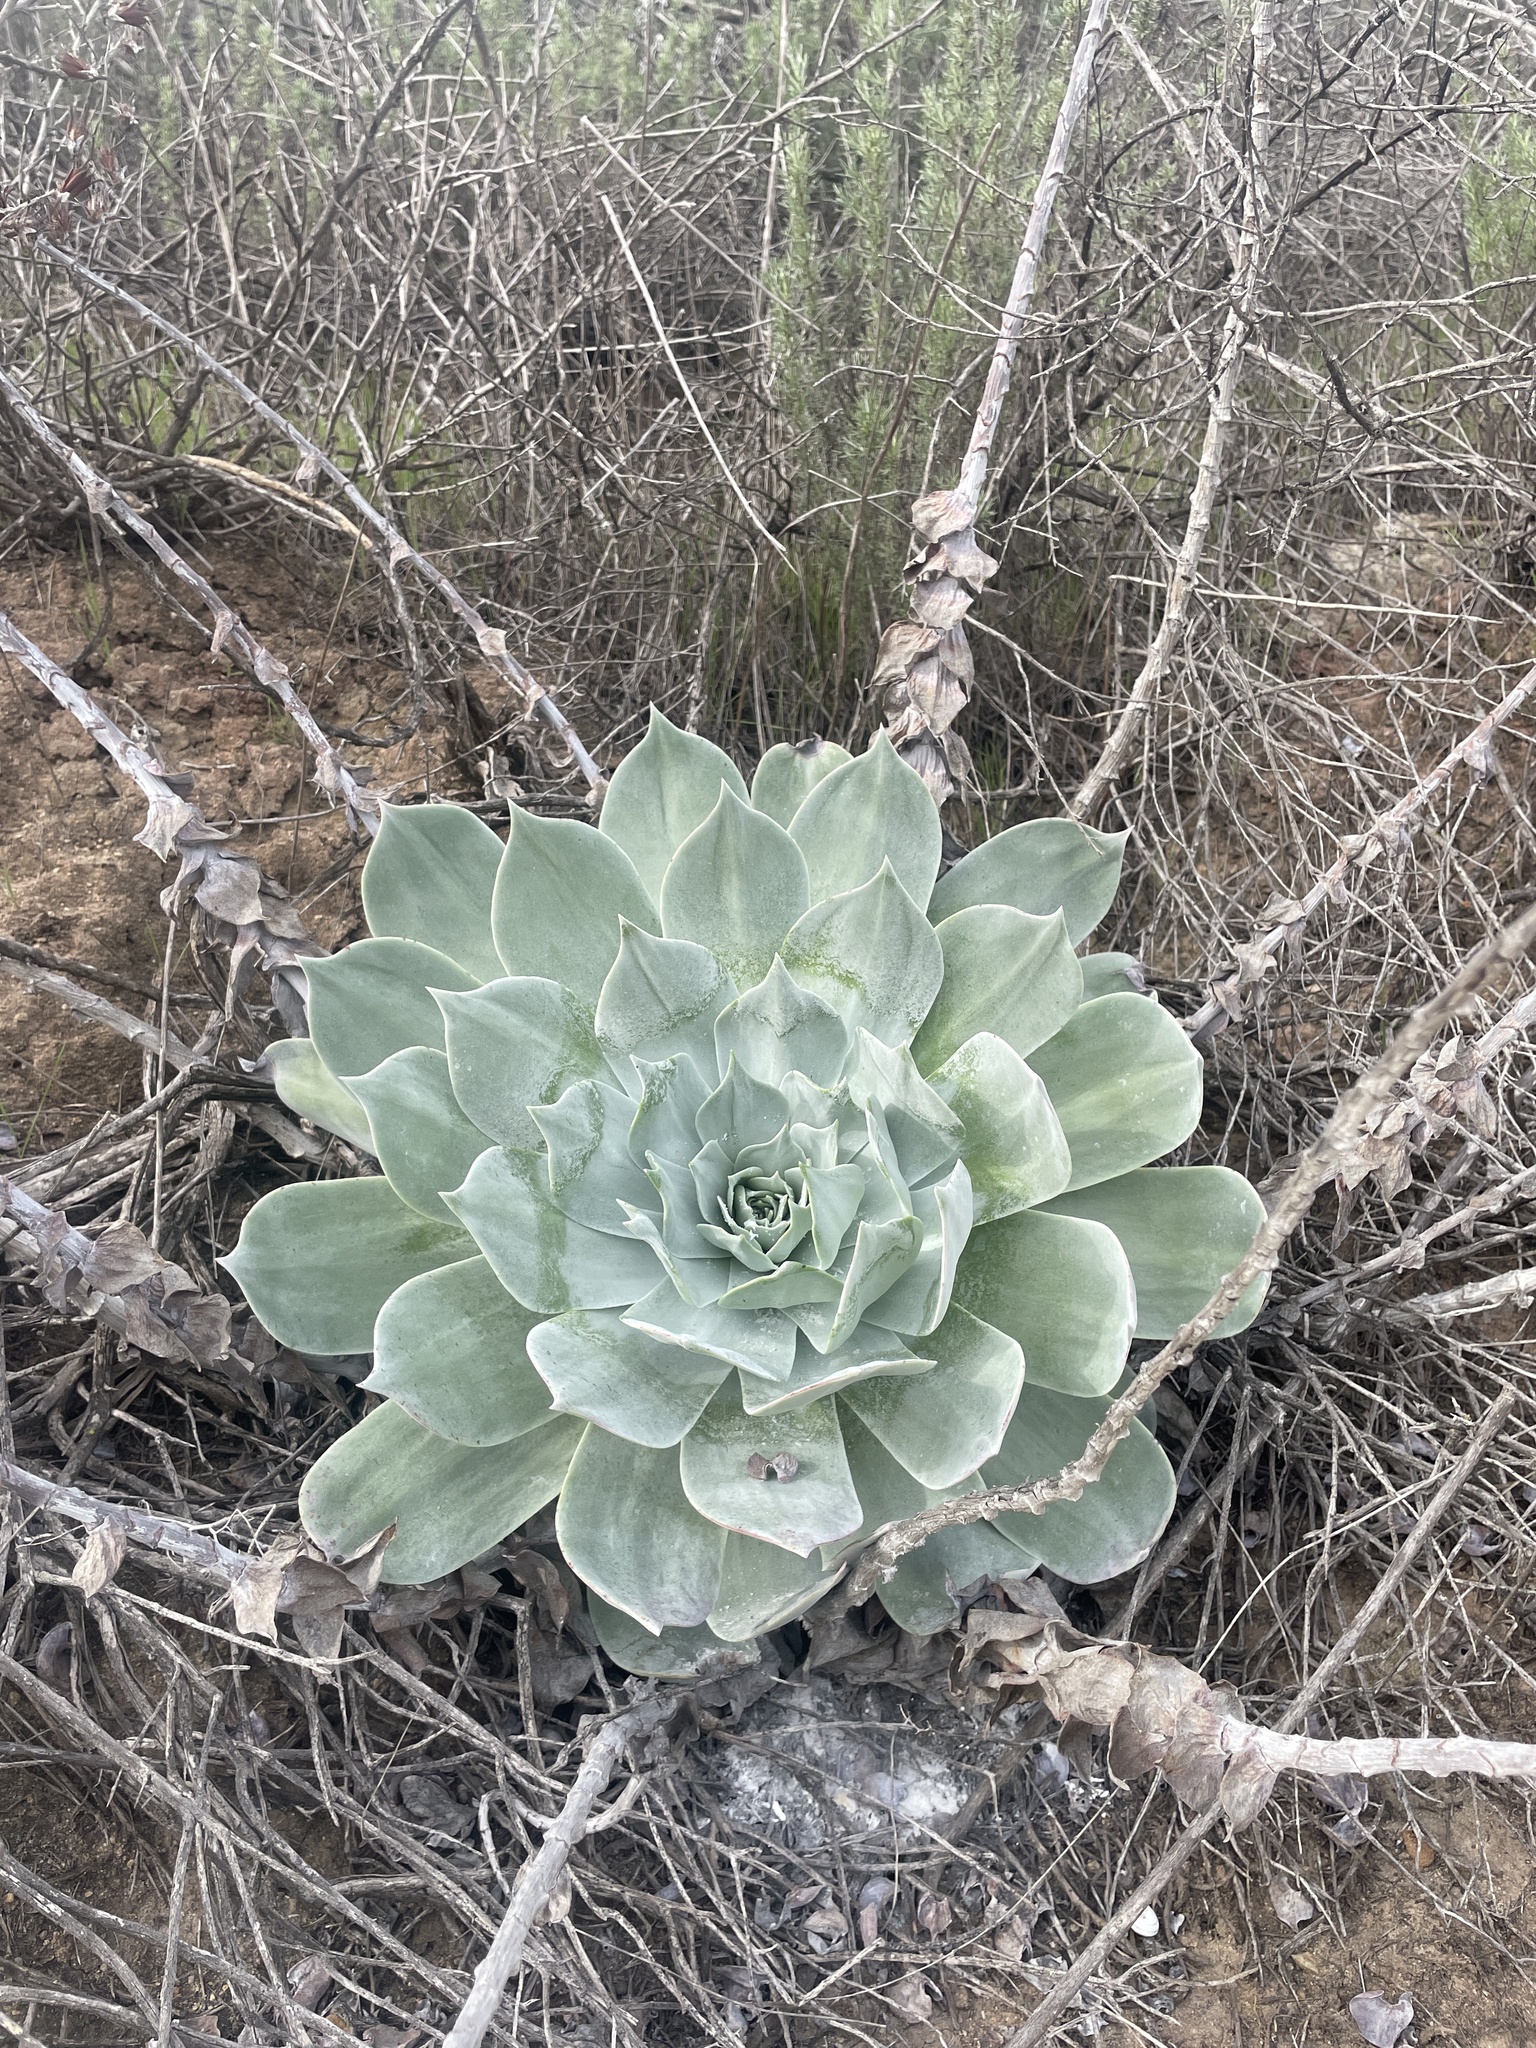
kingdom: Plantae
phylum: Tracheophyta
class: Magnoliopsida
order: Saxifragales
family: Crassulaceae
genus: Dudleya
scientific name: Dudleya pulverulenta
